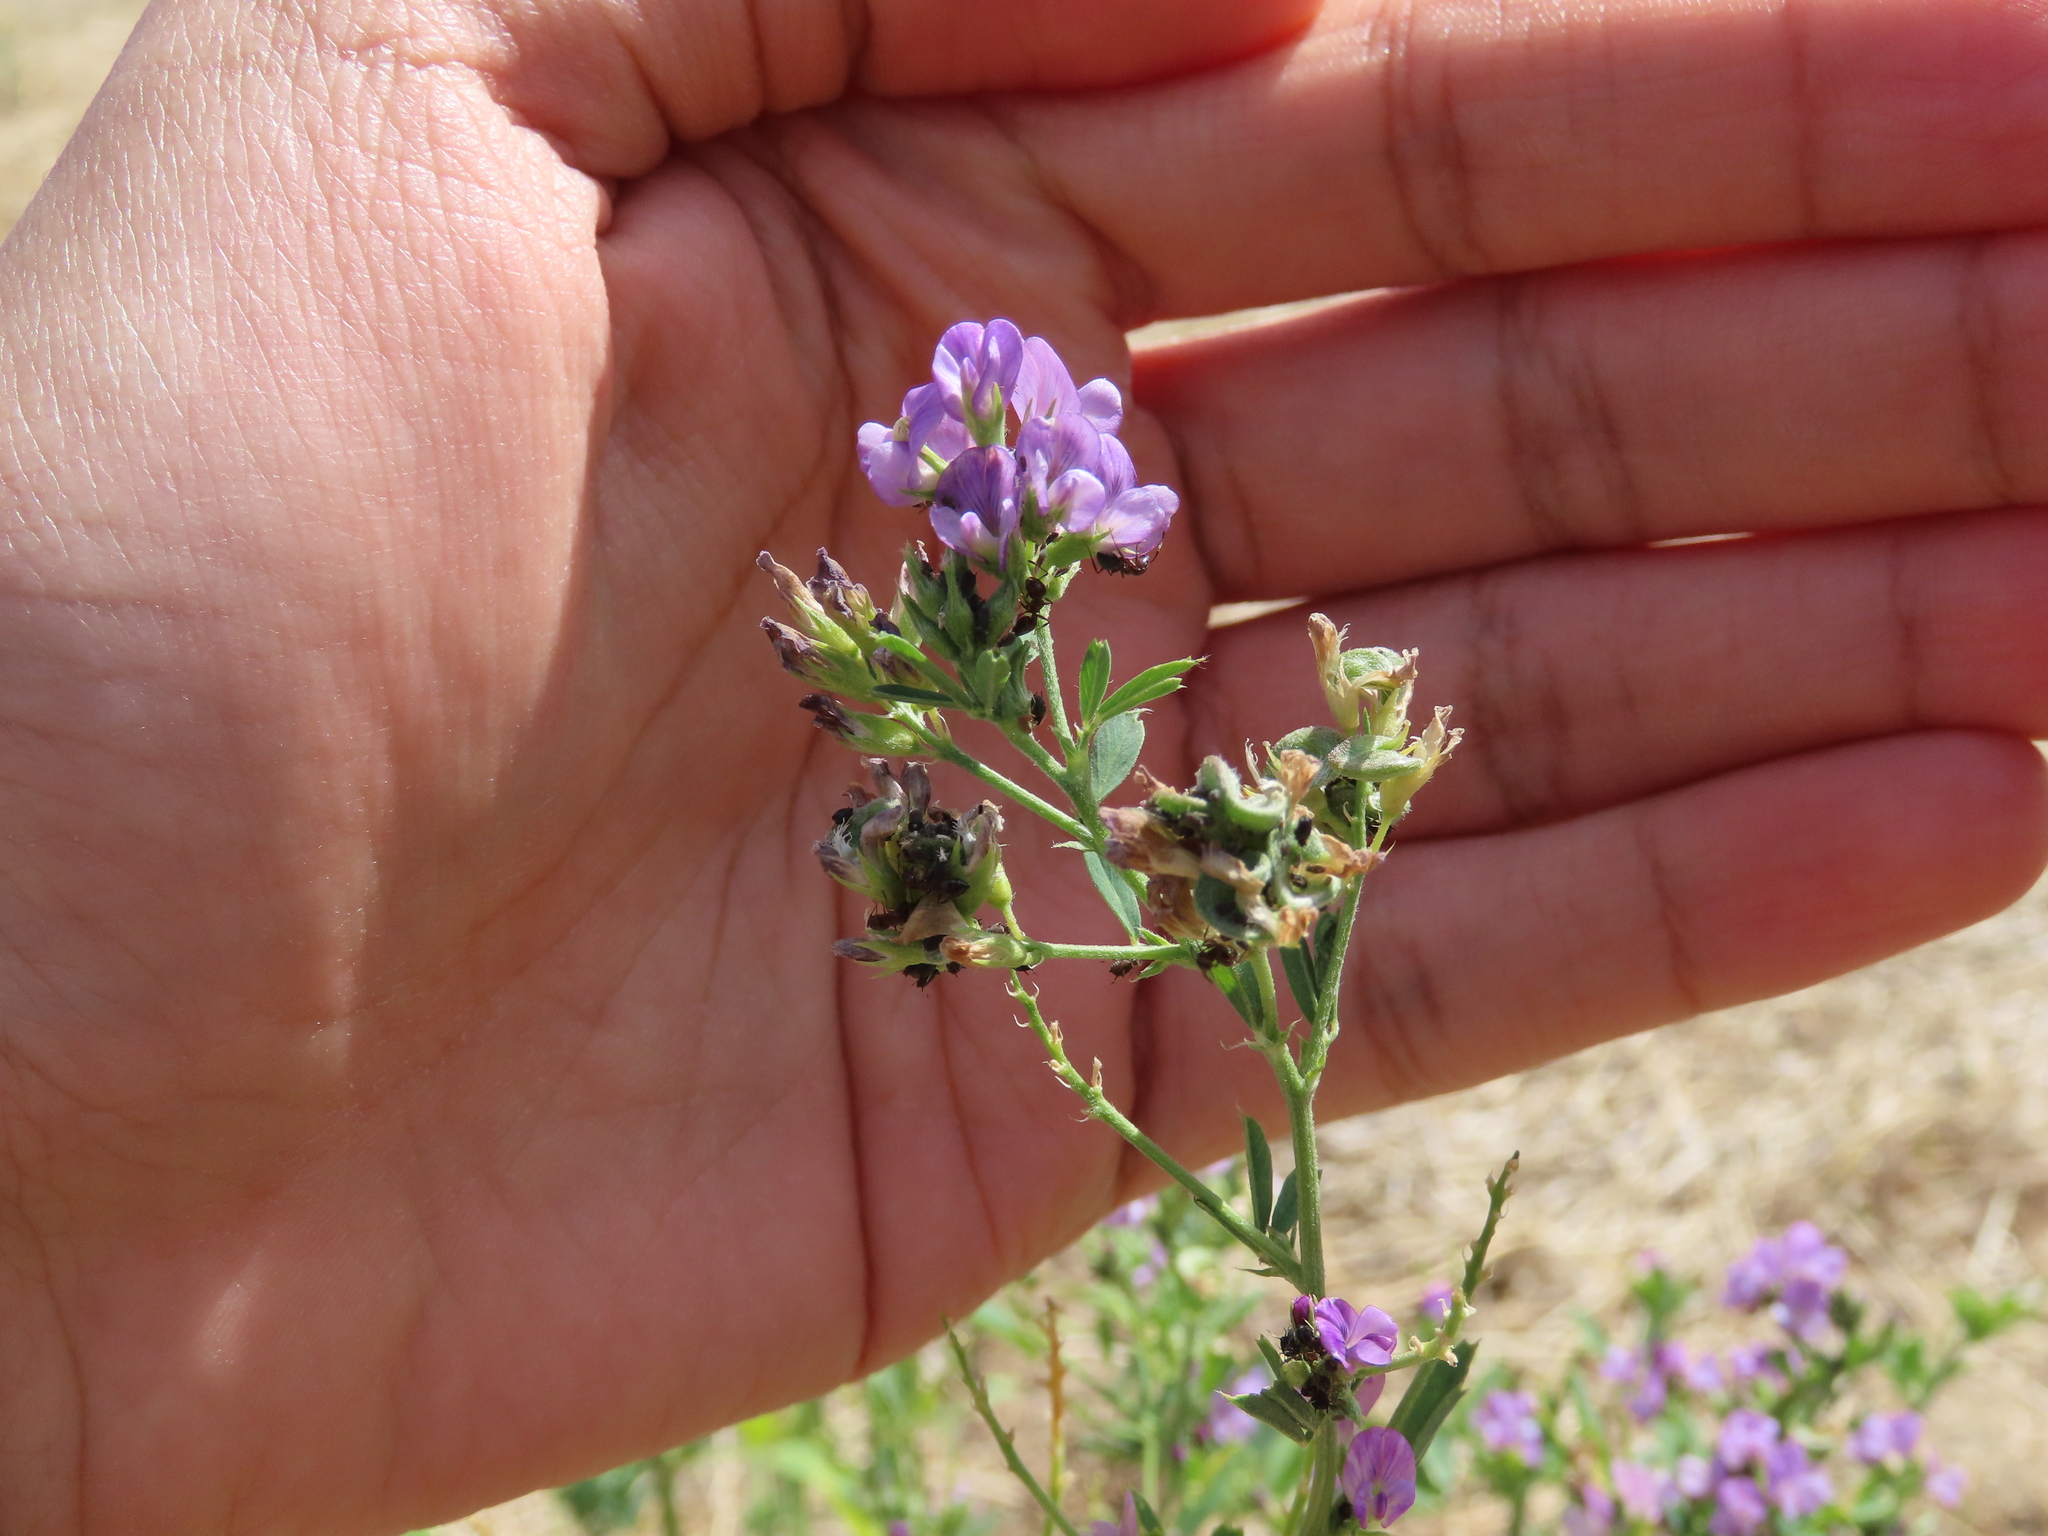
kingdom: Plantae
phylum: Tracheophyta
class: Magnoliopsida
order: Fabales
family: Fabaceae
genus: Medicago
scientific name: Medicago sativa
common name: Alfalfa
